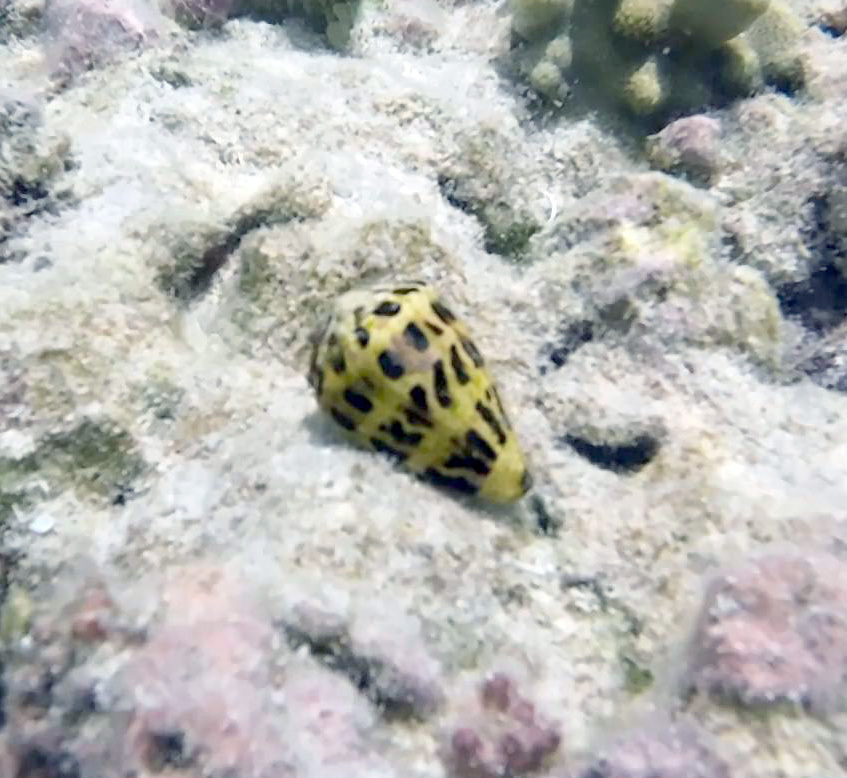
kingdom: Animalia
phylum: Mollusca
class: Gastropoda
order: Neogastropoda
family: Conidae
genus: Conus
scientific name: Conus ebraeus
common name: Hebrew cone
